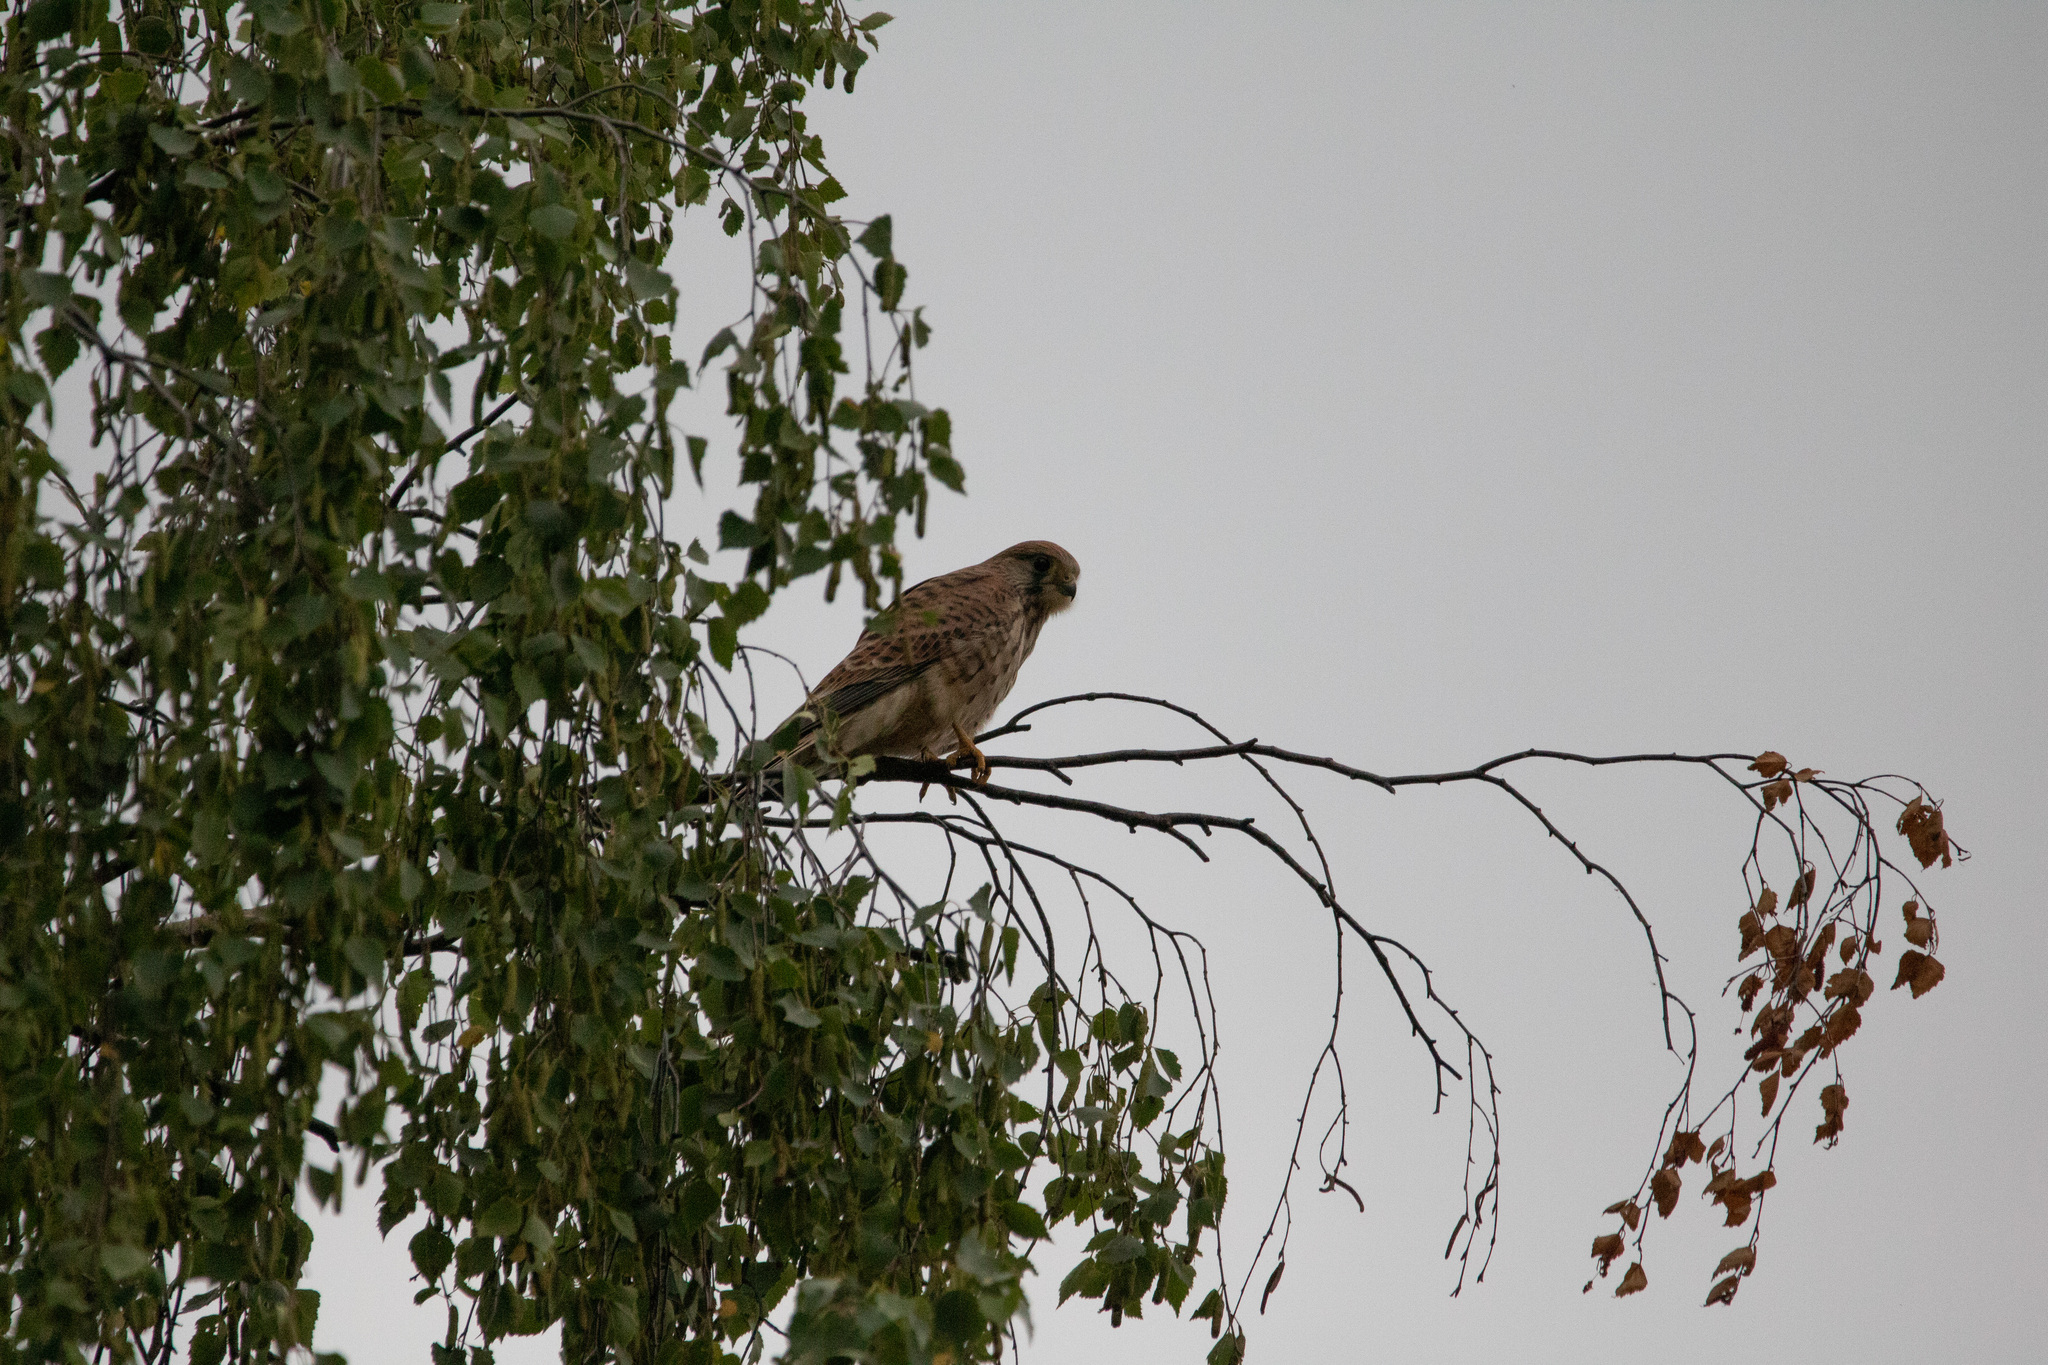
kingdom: Animalia
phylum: Chordata
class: Aves
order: Falconiformes
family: Falconidae
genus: Falco
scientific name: Falco tinnunculus
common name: Common kestrel
